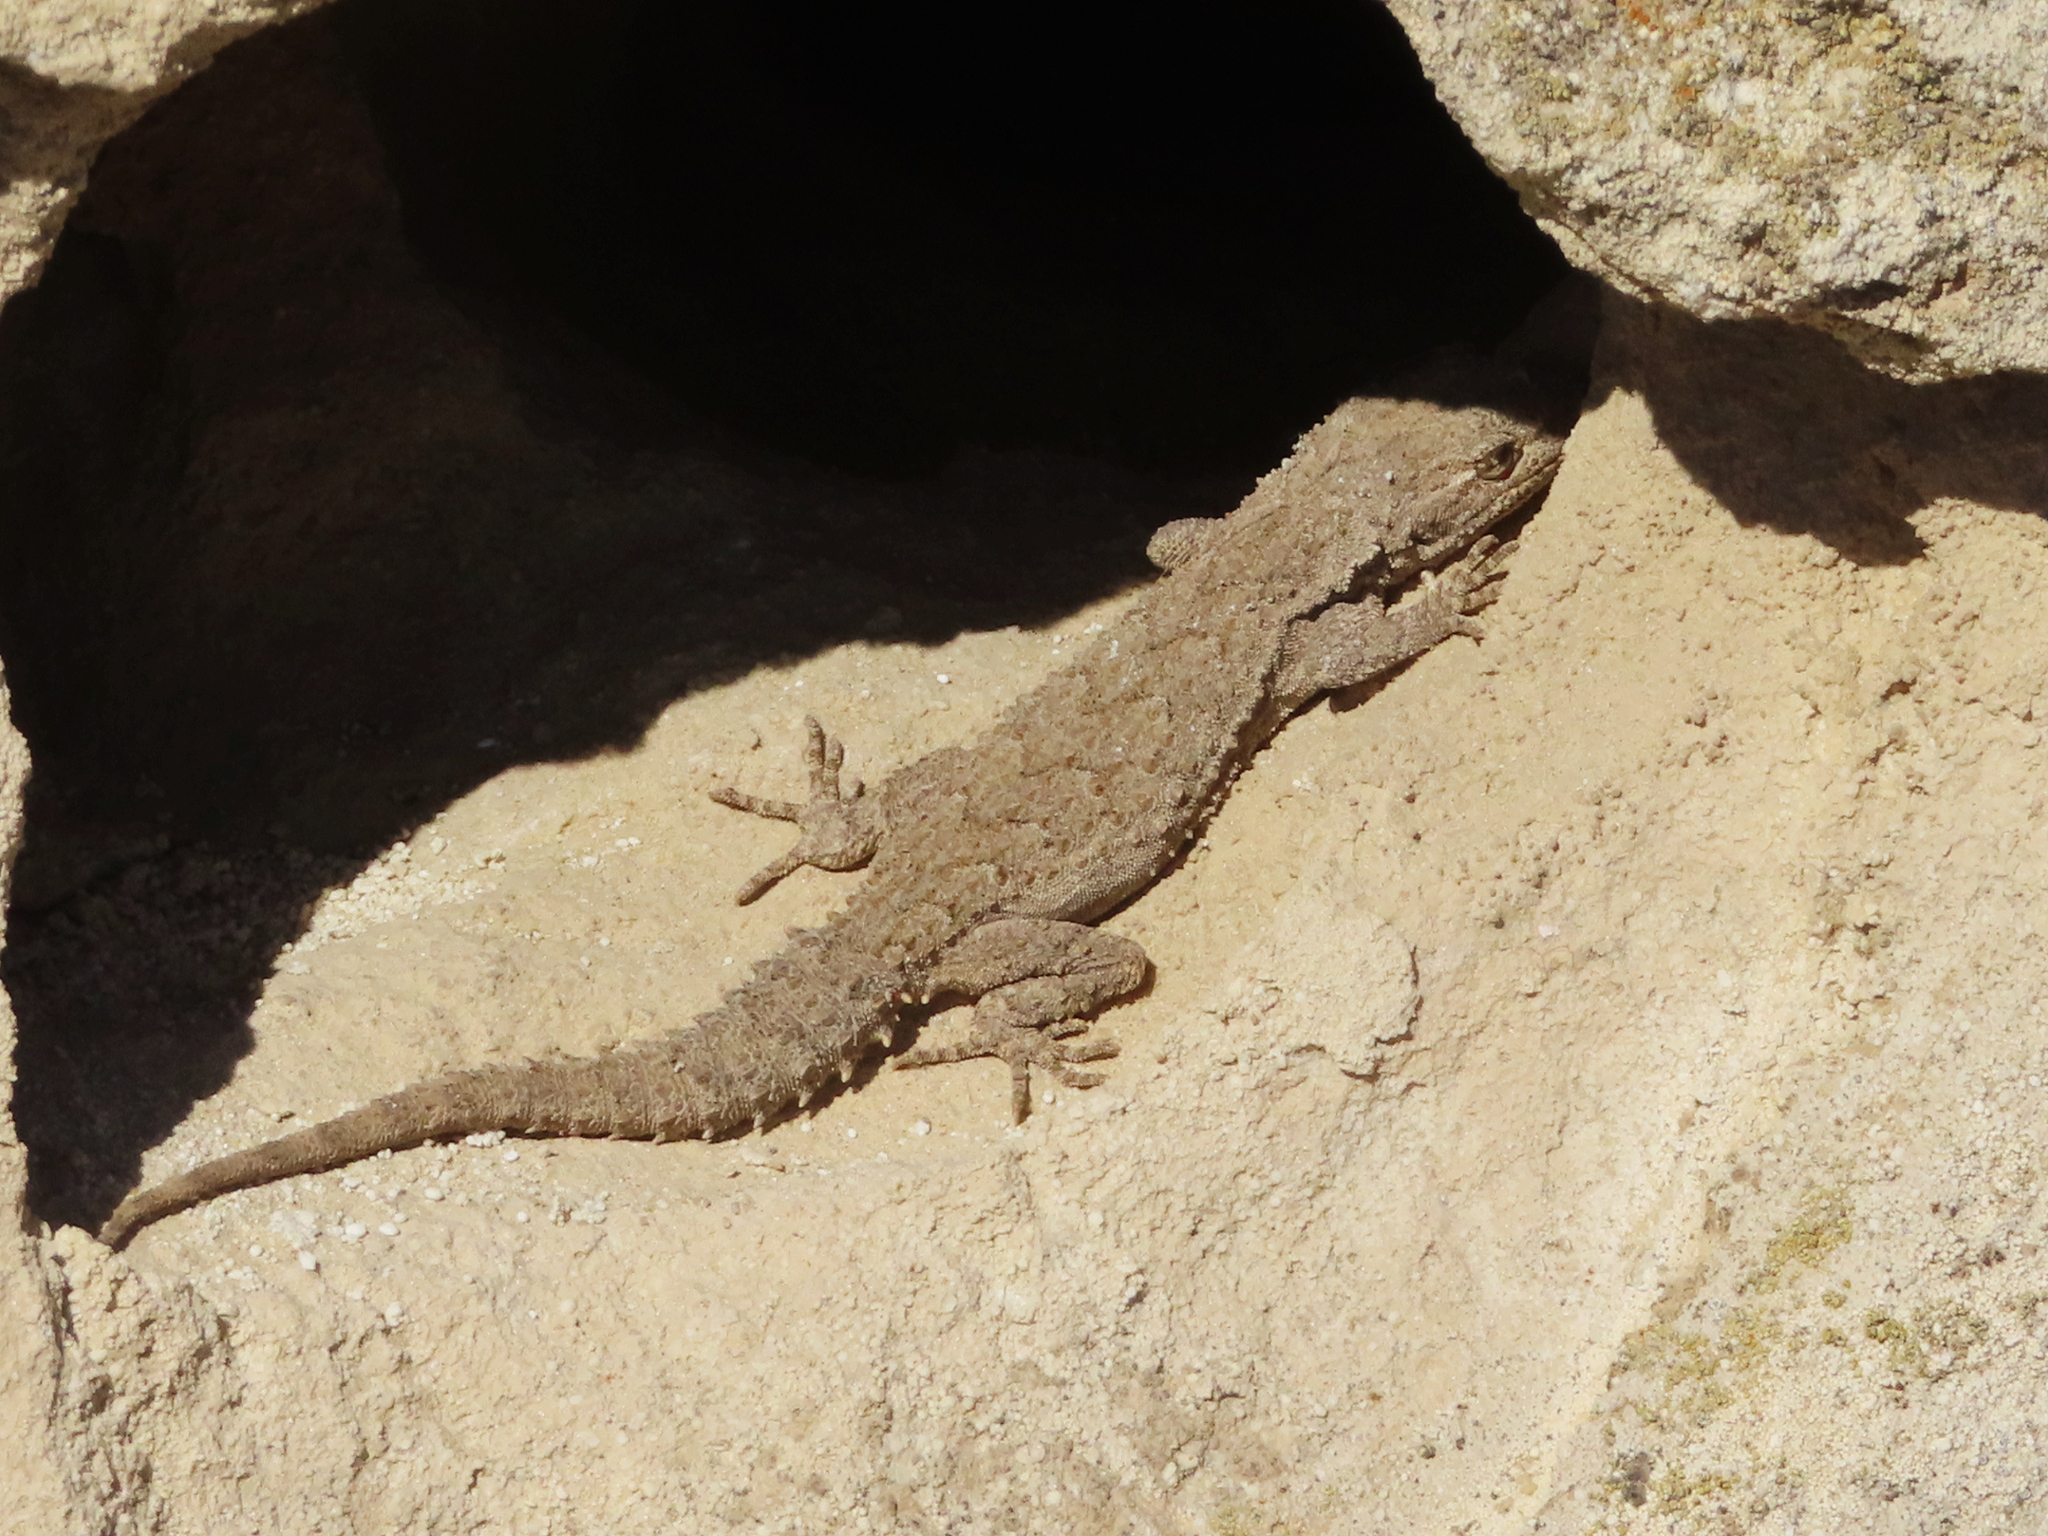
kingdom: Animalia
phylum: Chordata
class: Squamata
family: Gekkonidae
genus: Mediodactylus
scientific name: Mediodactylus russowii
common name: Grey thin-toed gecko
